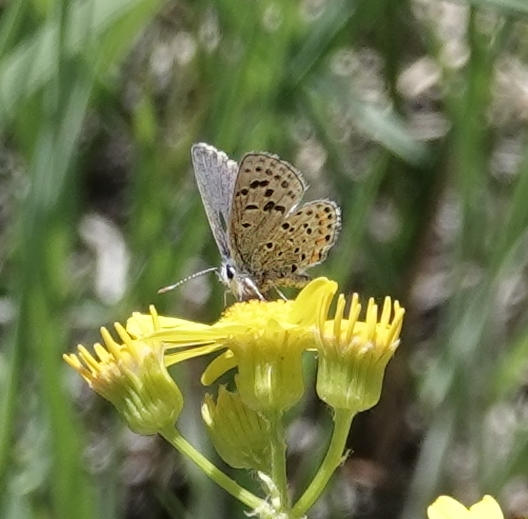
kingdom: Animalia
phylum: Arthropoda
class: Insecta
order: Lepidoptera
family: Lycaenidae
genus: Icaricia
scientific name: Icaricia lupini
